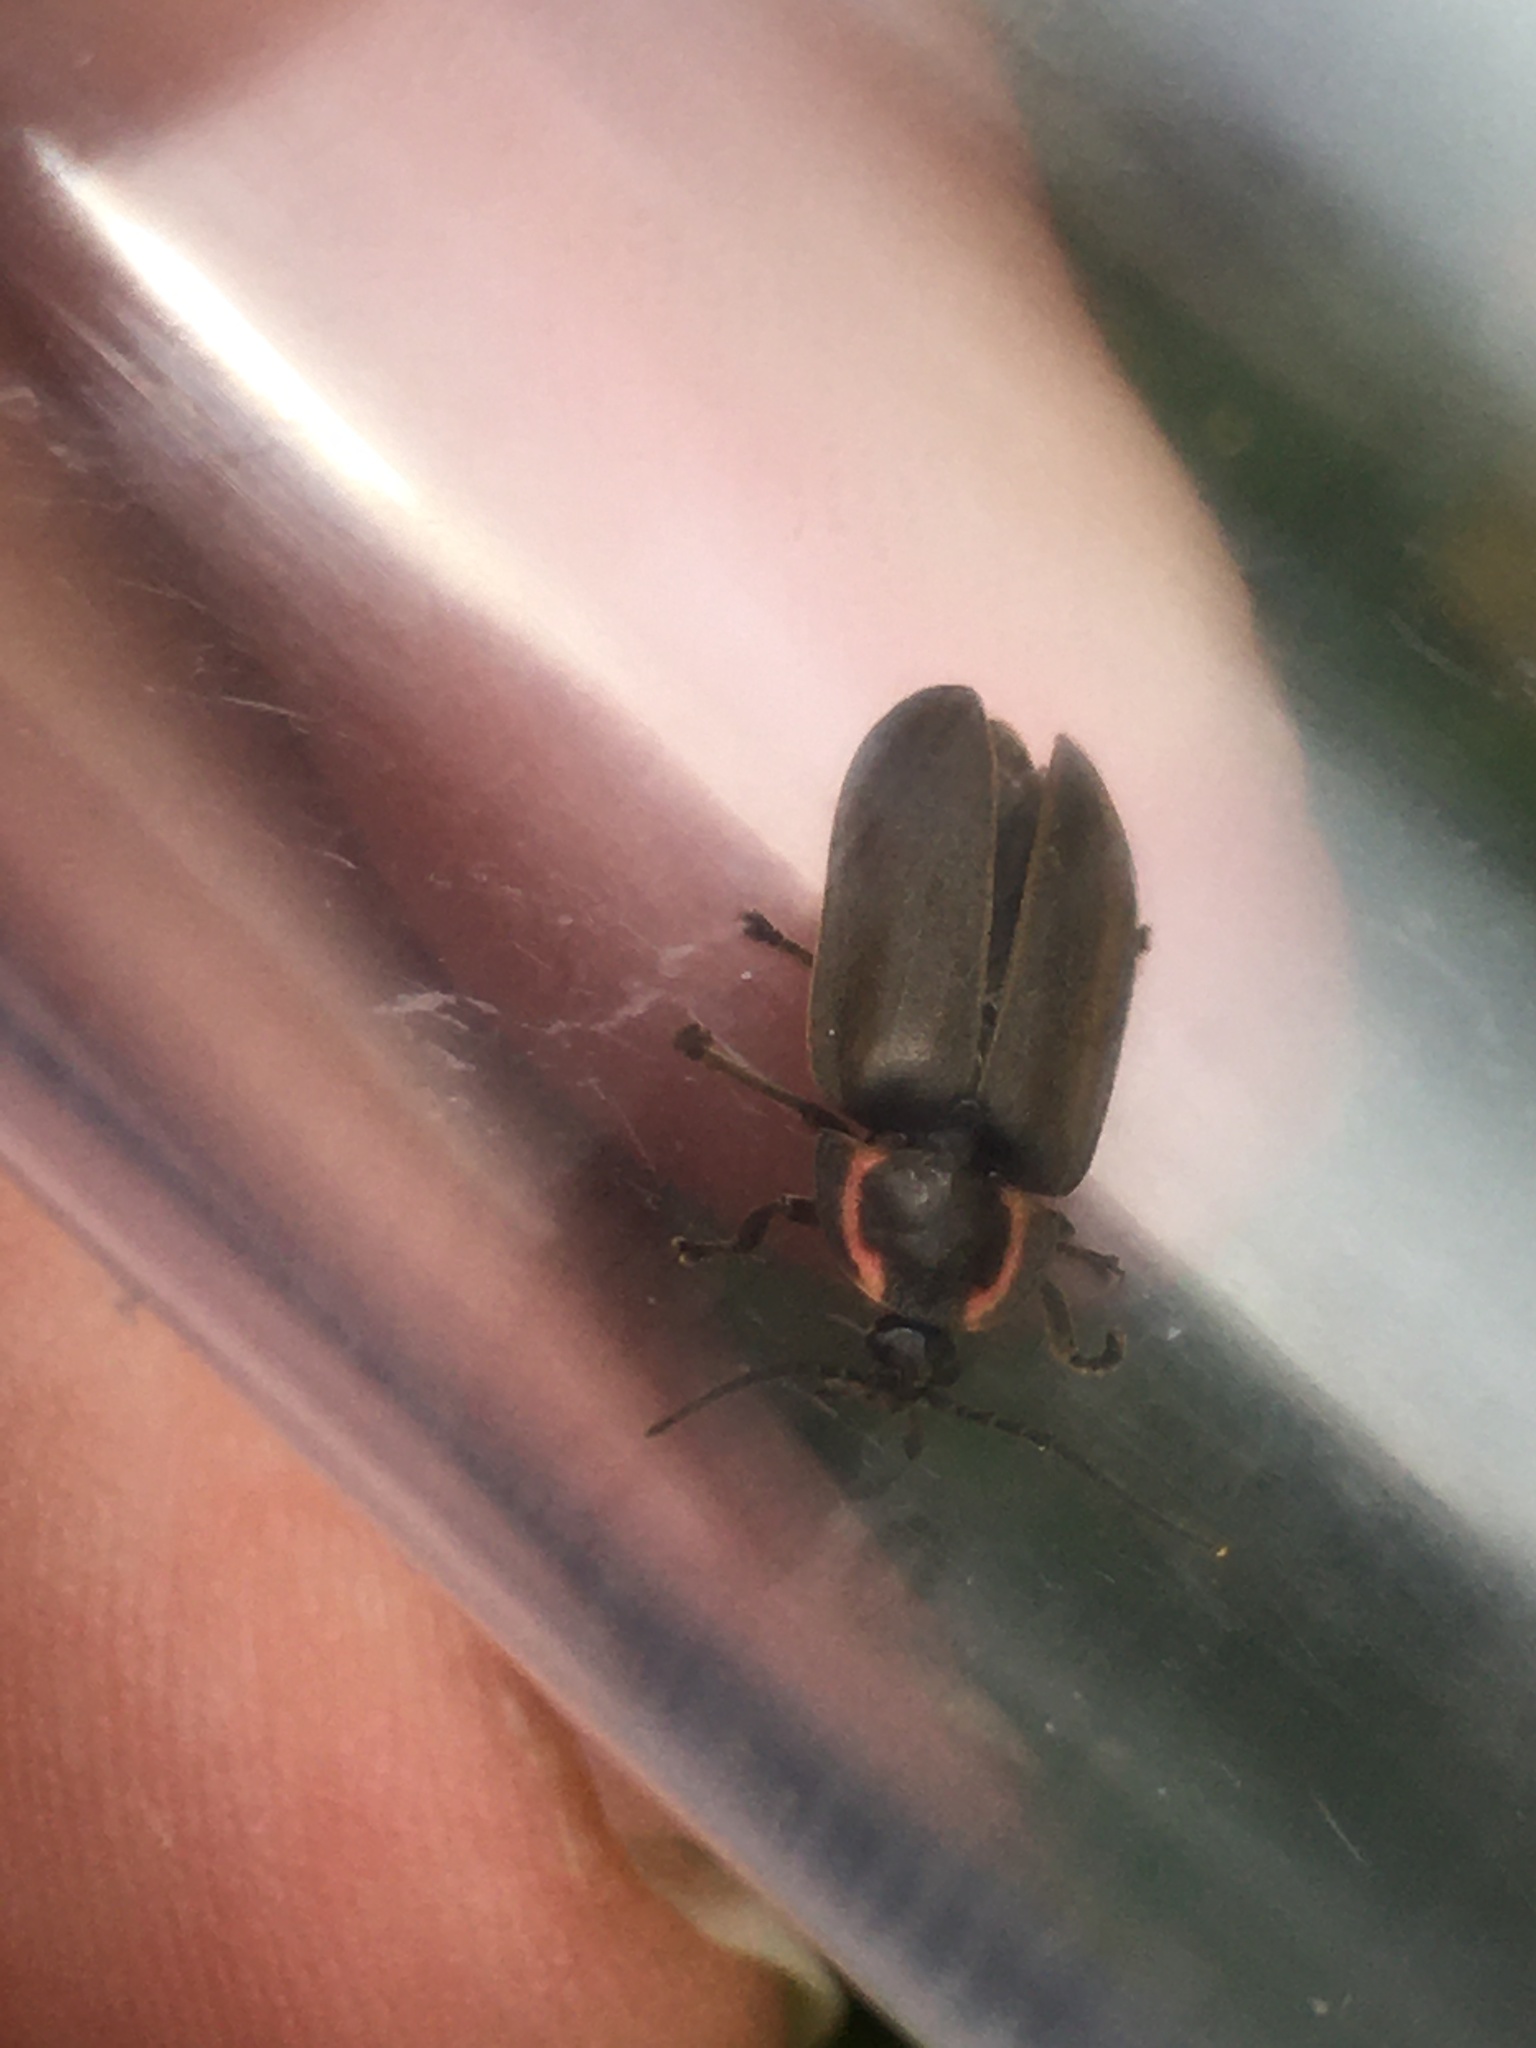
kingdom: Animalia
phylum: Arthropoda
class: Insecta
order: Coleoptera
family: Lampyridae
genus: Photinus
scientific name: Photinus corrusca
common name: Winter firefly
